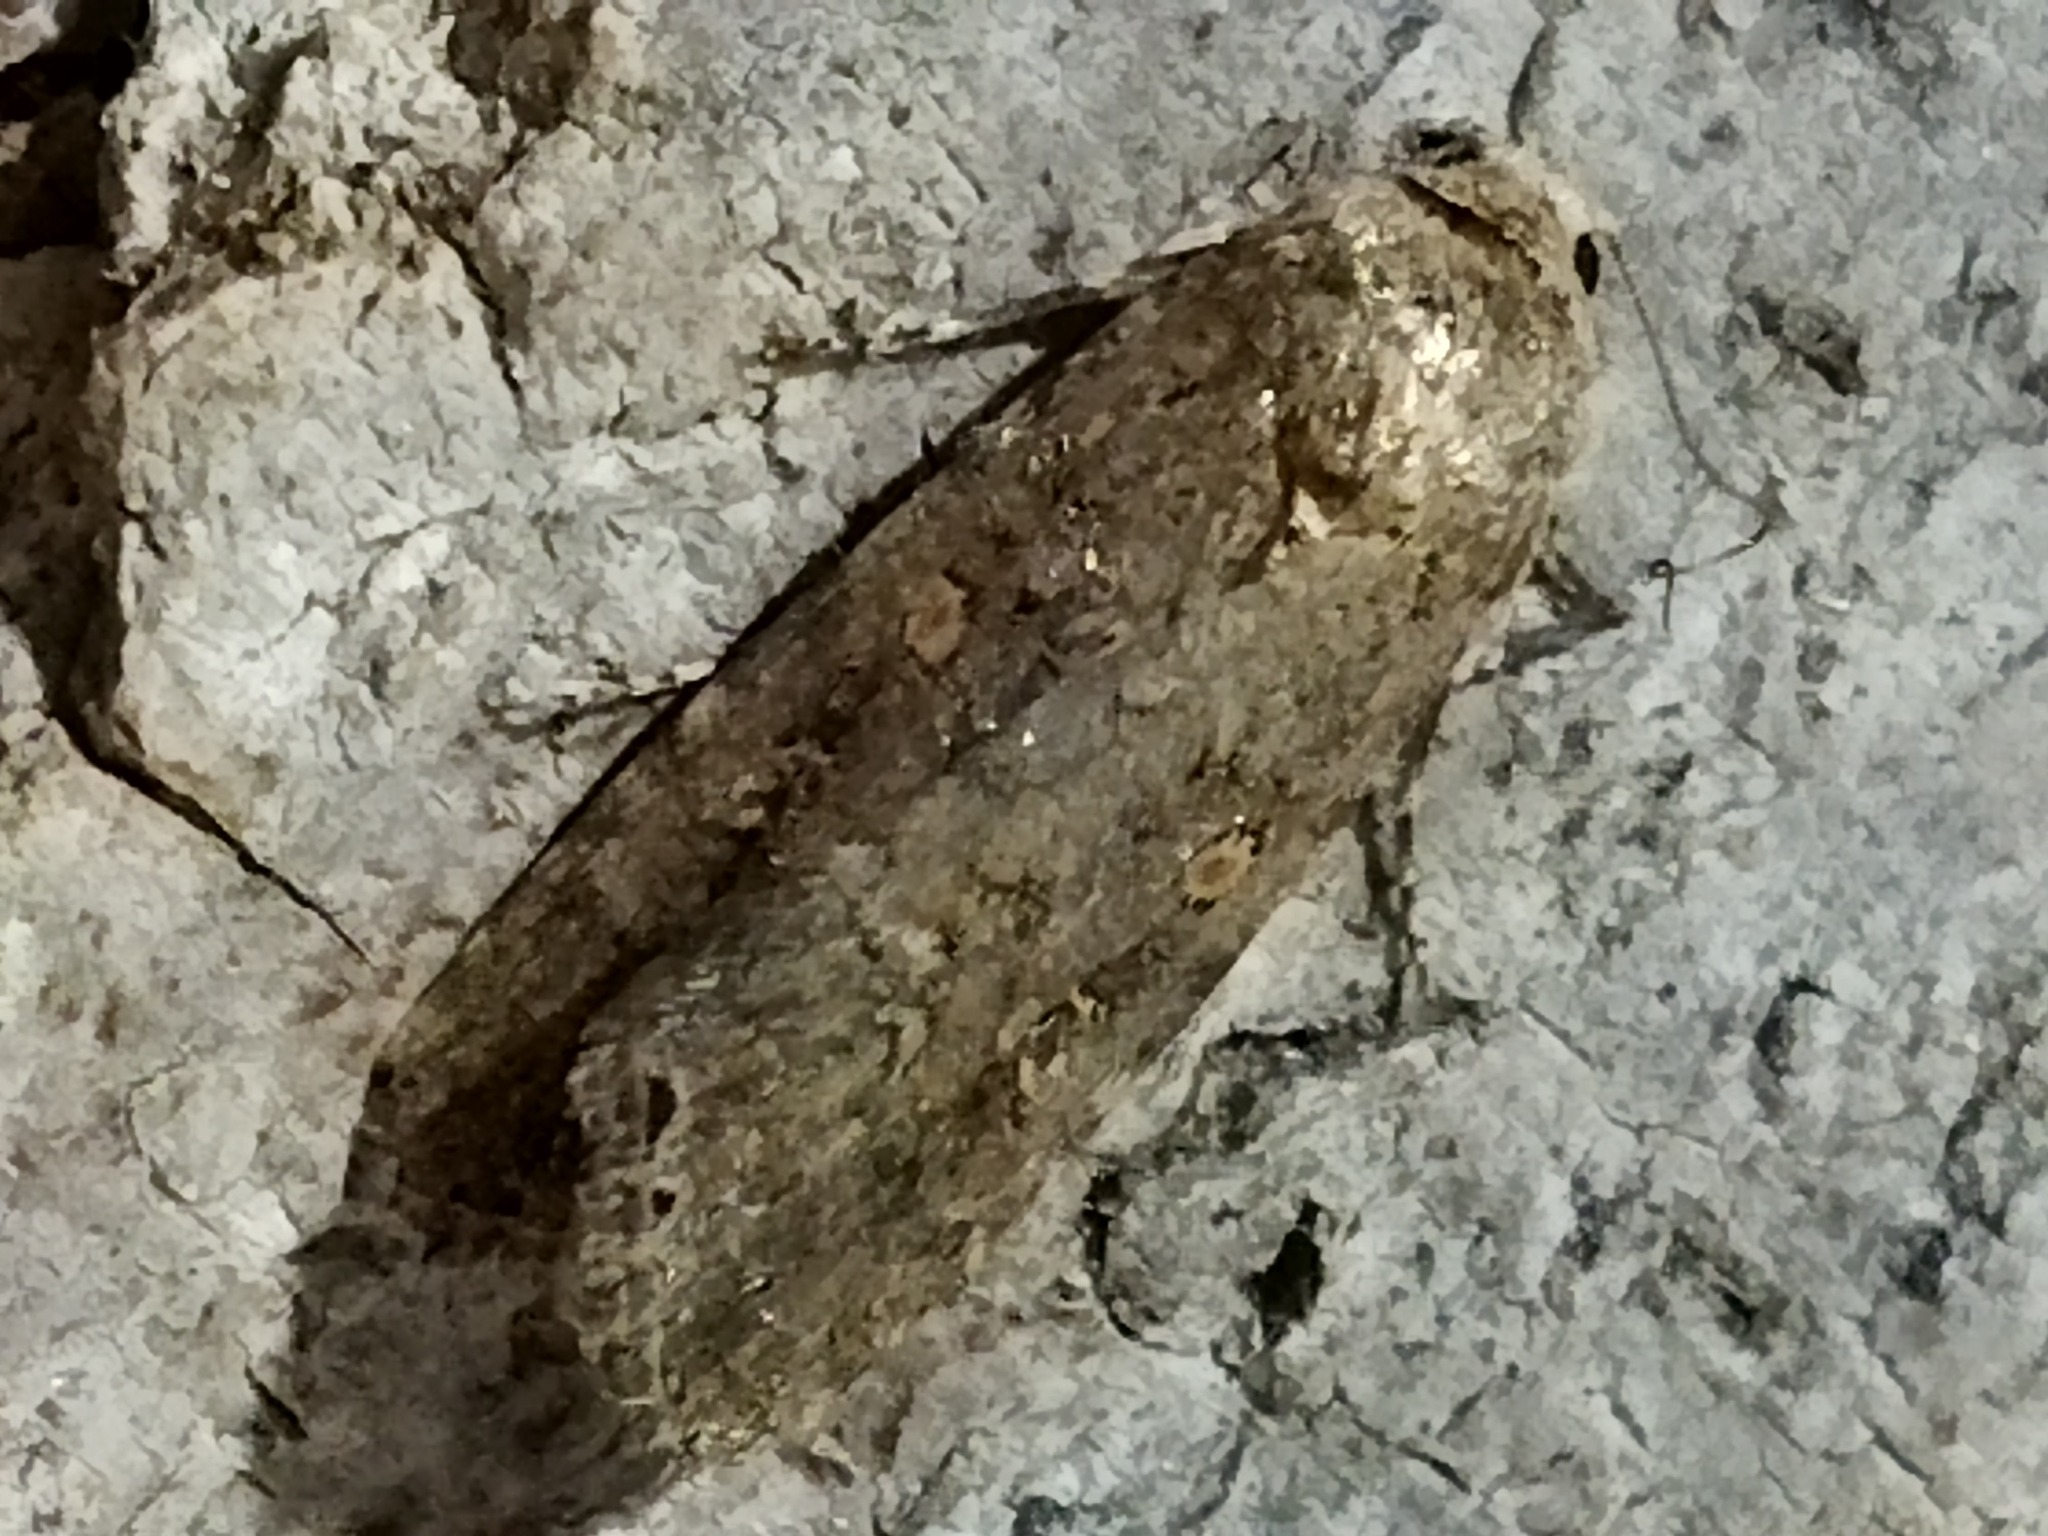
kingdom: Animalia
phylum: Arthropoda
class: Insecta
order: Lepidoptera
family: Noctuidae
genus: Spodoptera
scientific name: Spodoptera exigua
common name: Beet armyworm
